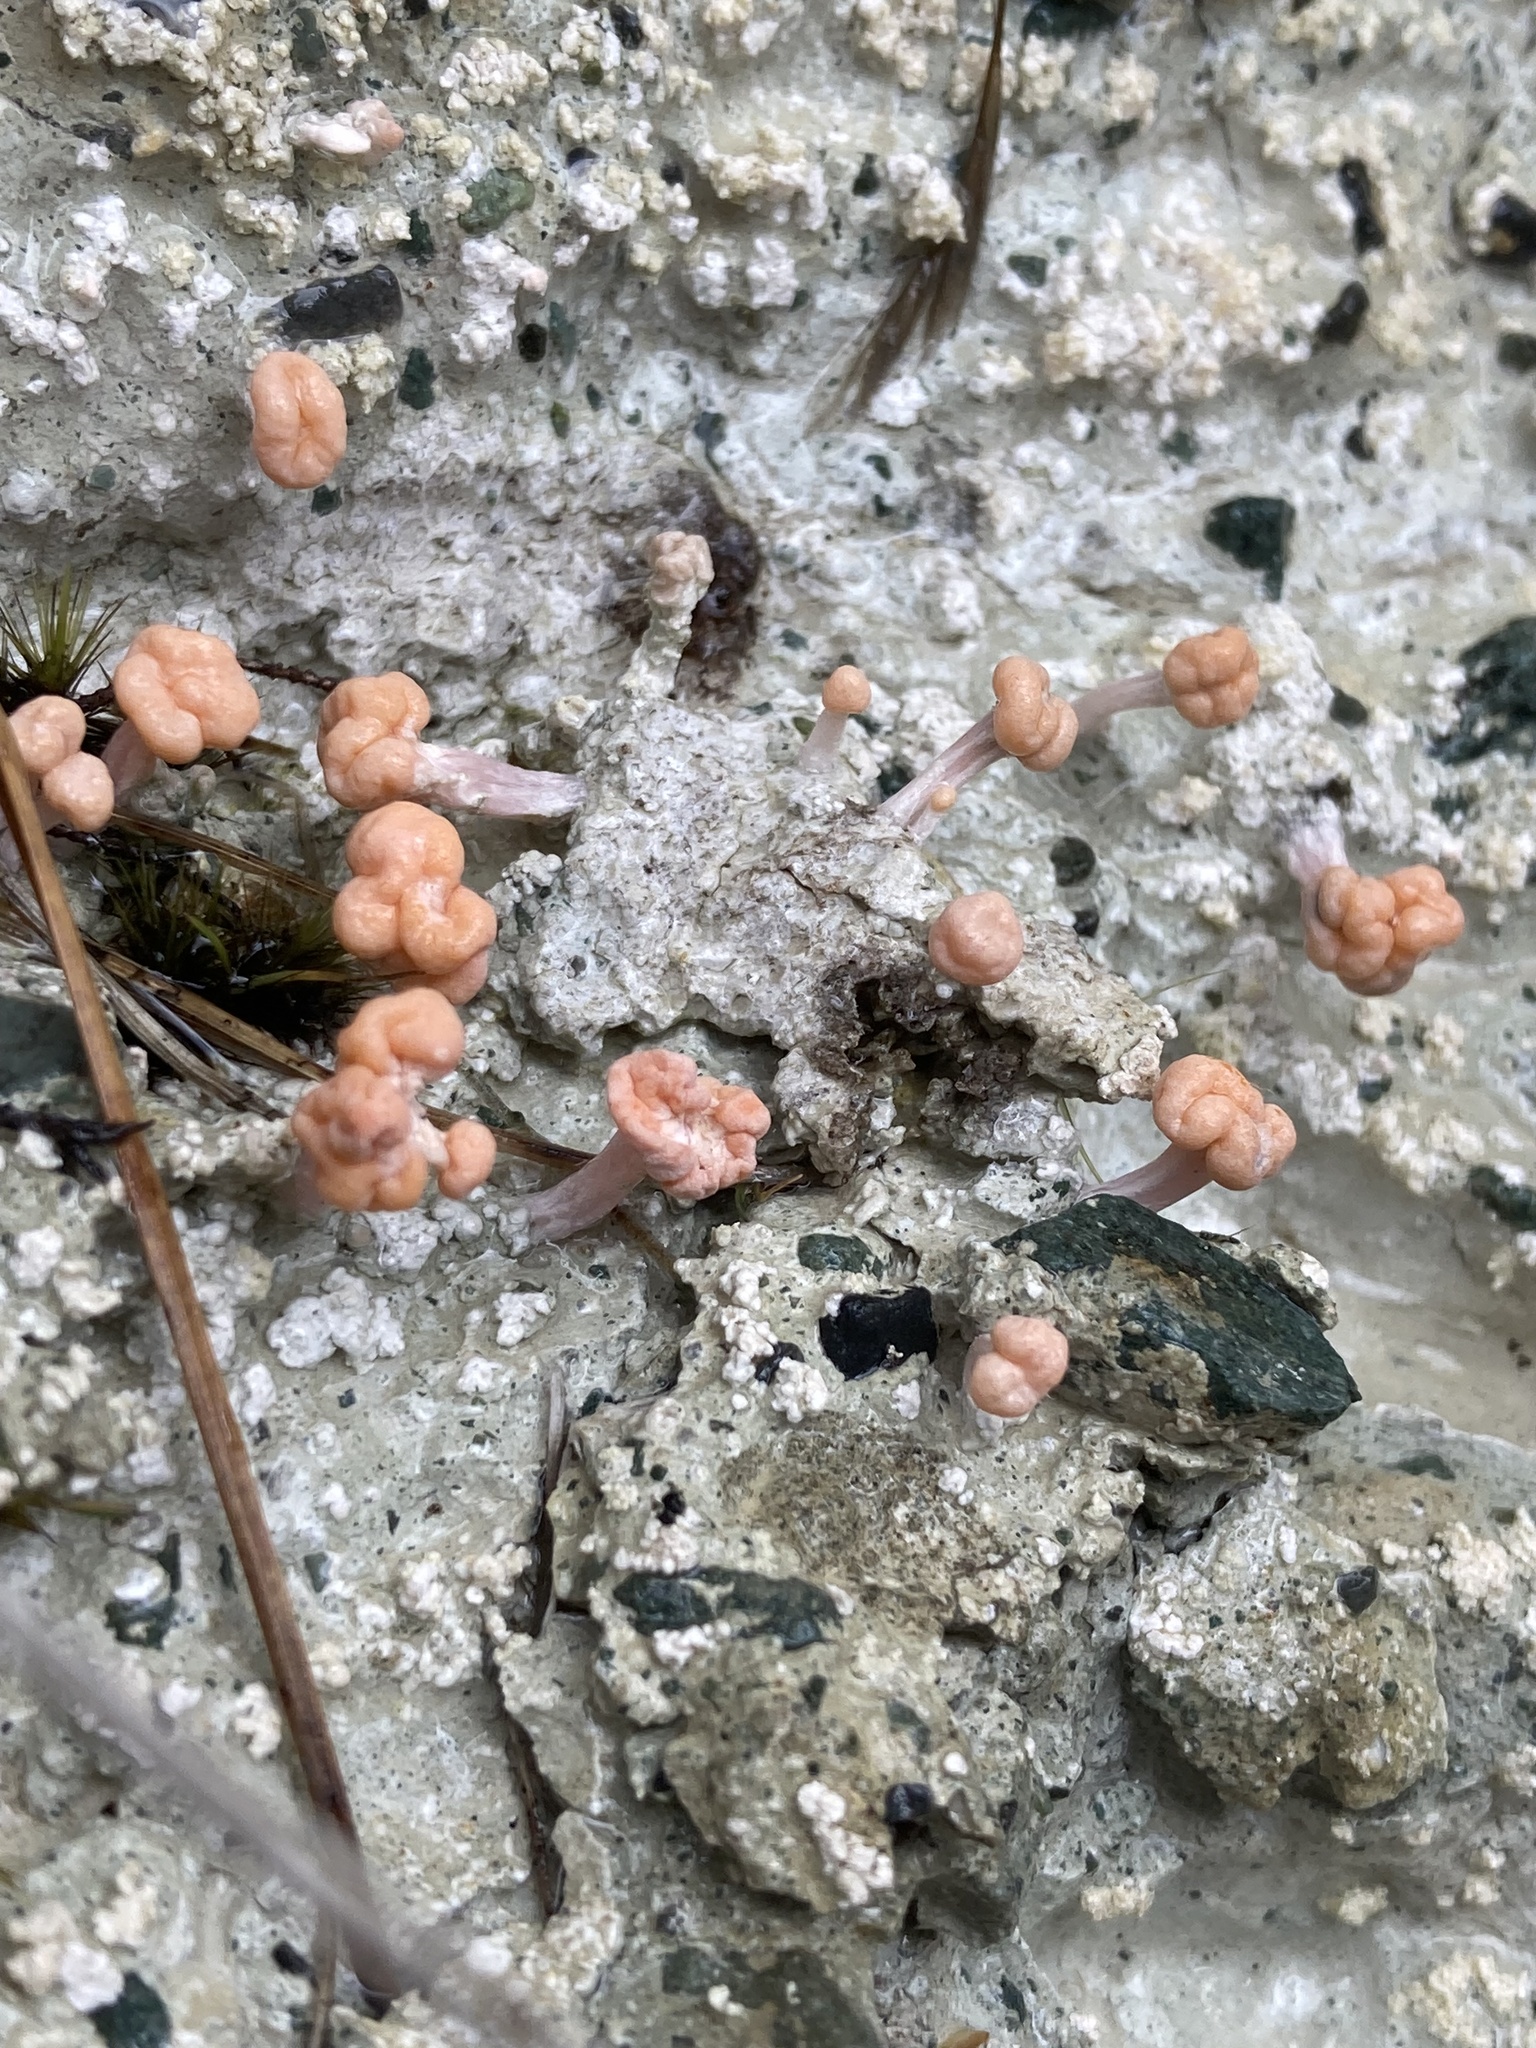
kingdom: Fungi
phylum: Ascomycota
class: Lecanoromycetes
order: Pertusariales
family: Icmadophilaceae
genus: Dibaeis
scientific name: Dibaeis arcuata
